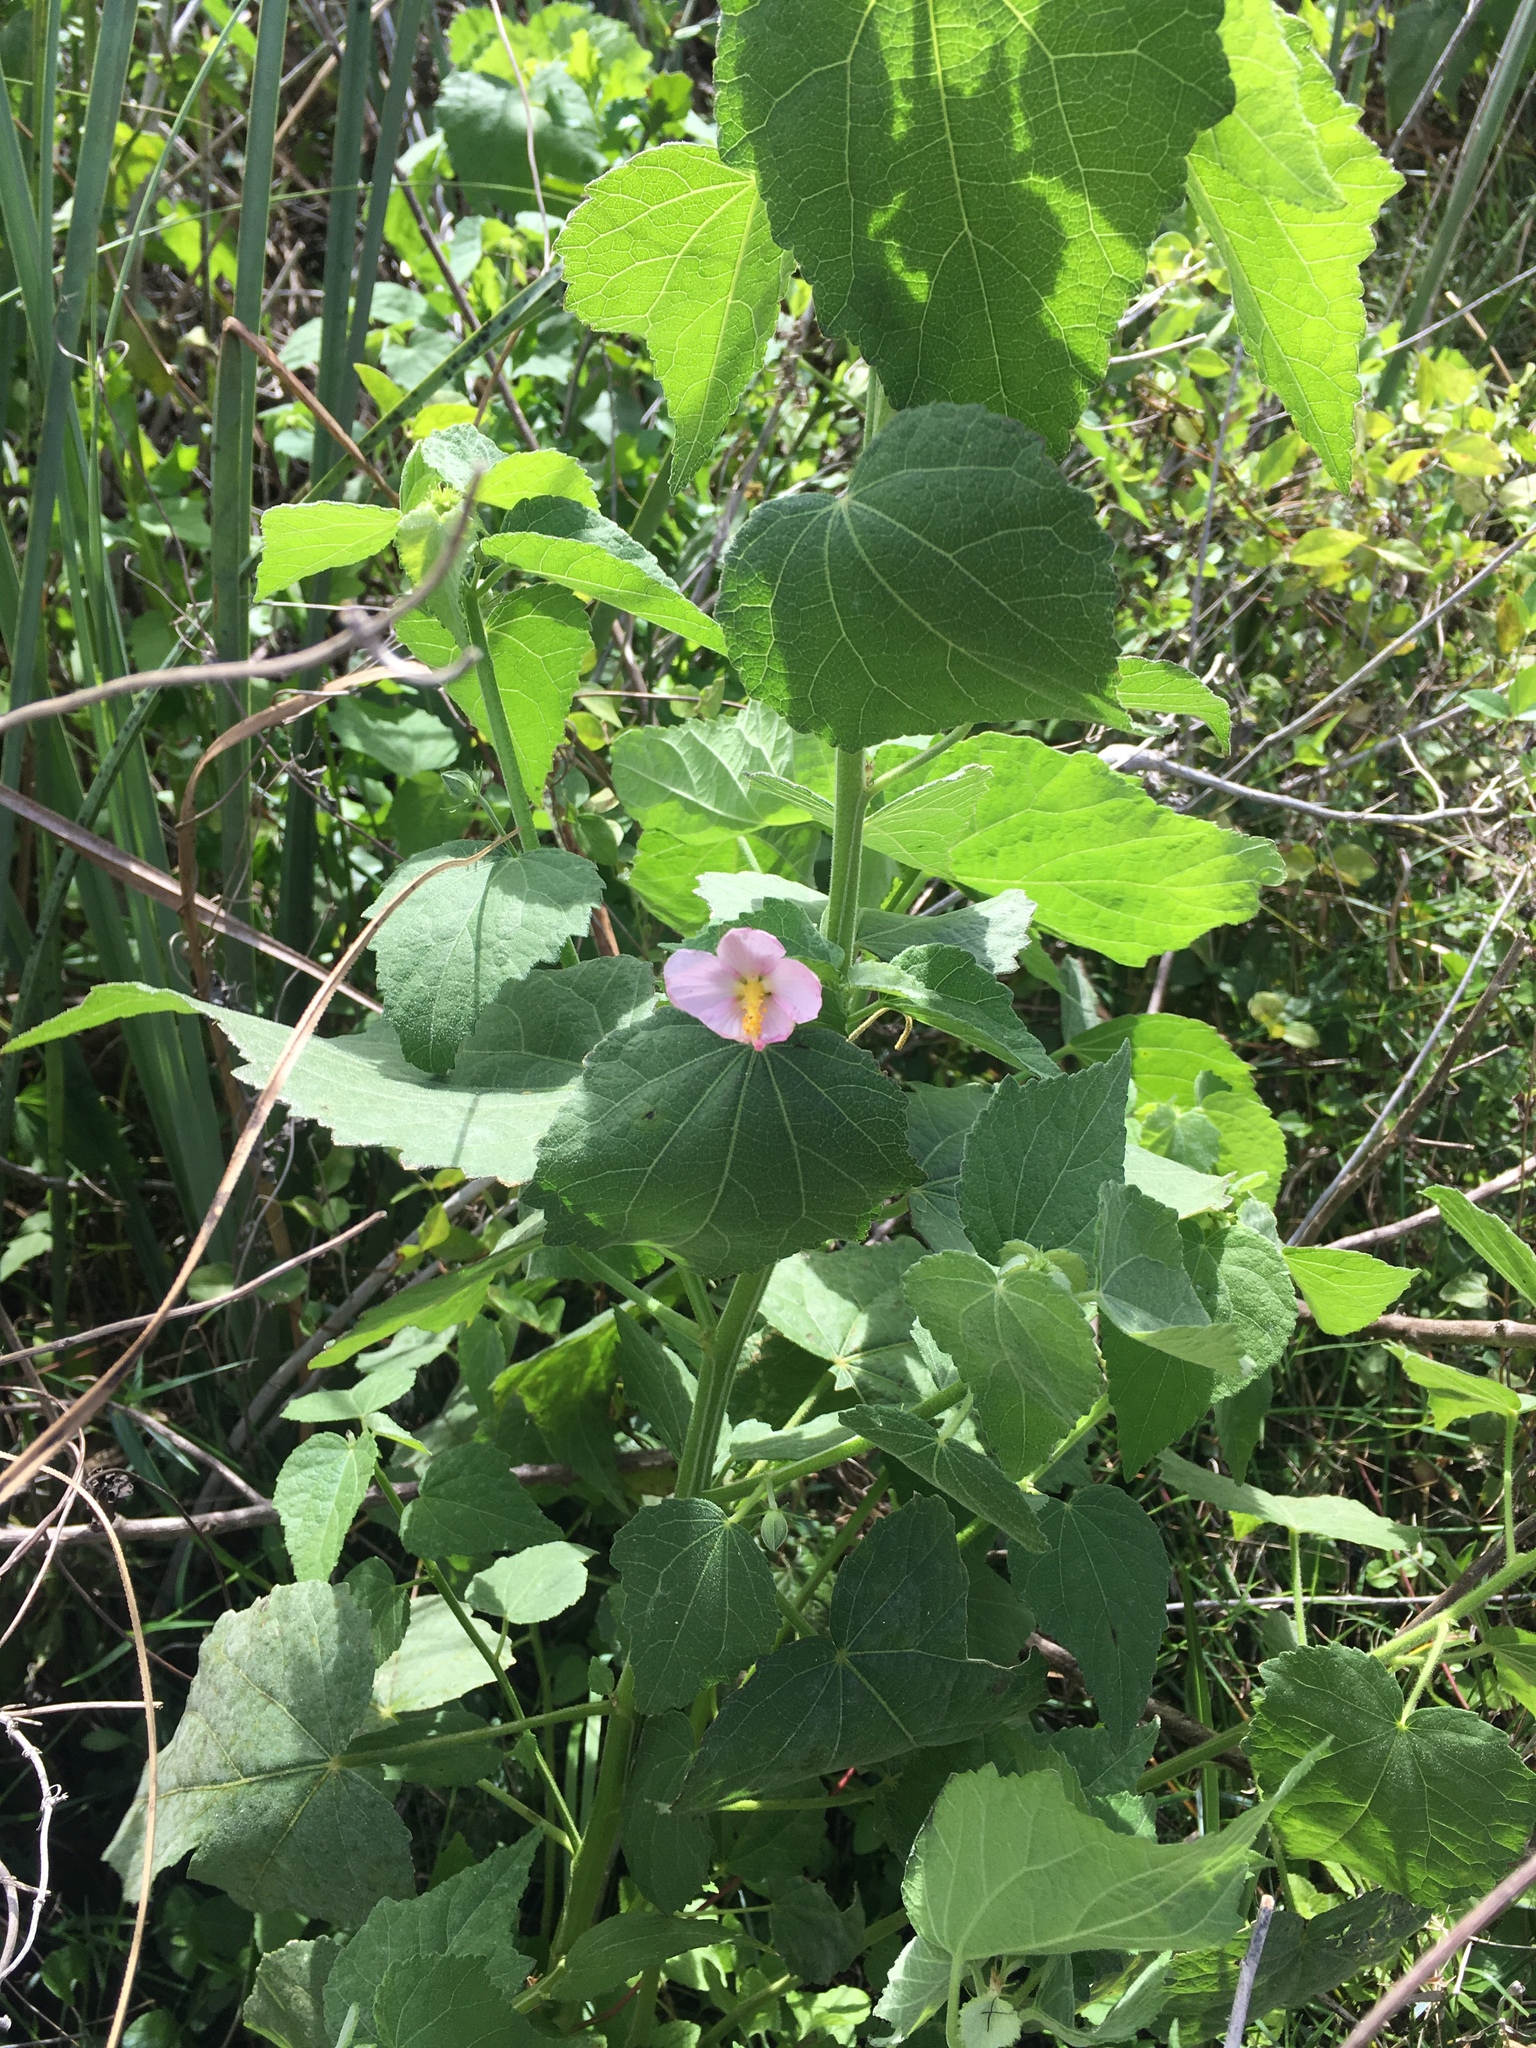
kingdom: Plantae
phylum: Tracheophyta
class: Magnoliopsida
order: Malvales
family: Malvaceae
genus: Kosteletzkya
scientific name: Kosteletzkya pentacarpos
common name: Virginia saltmarsh mallow
